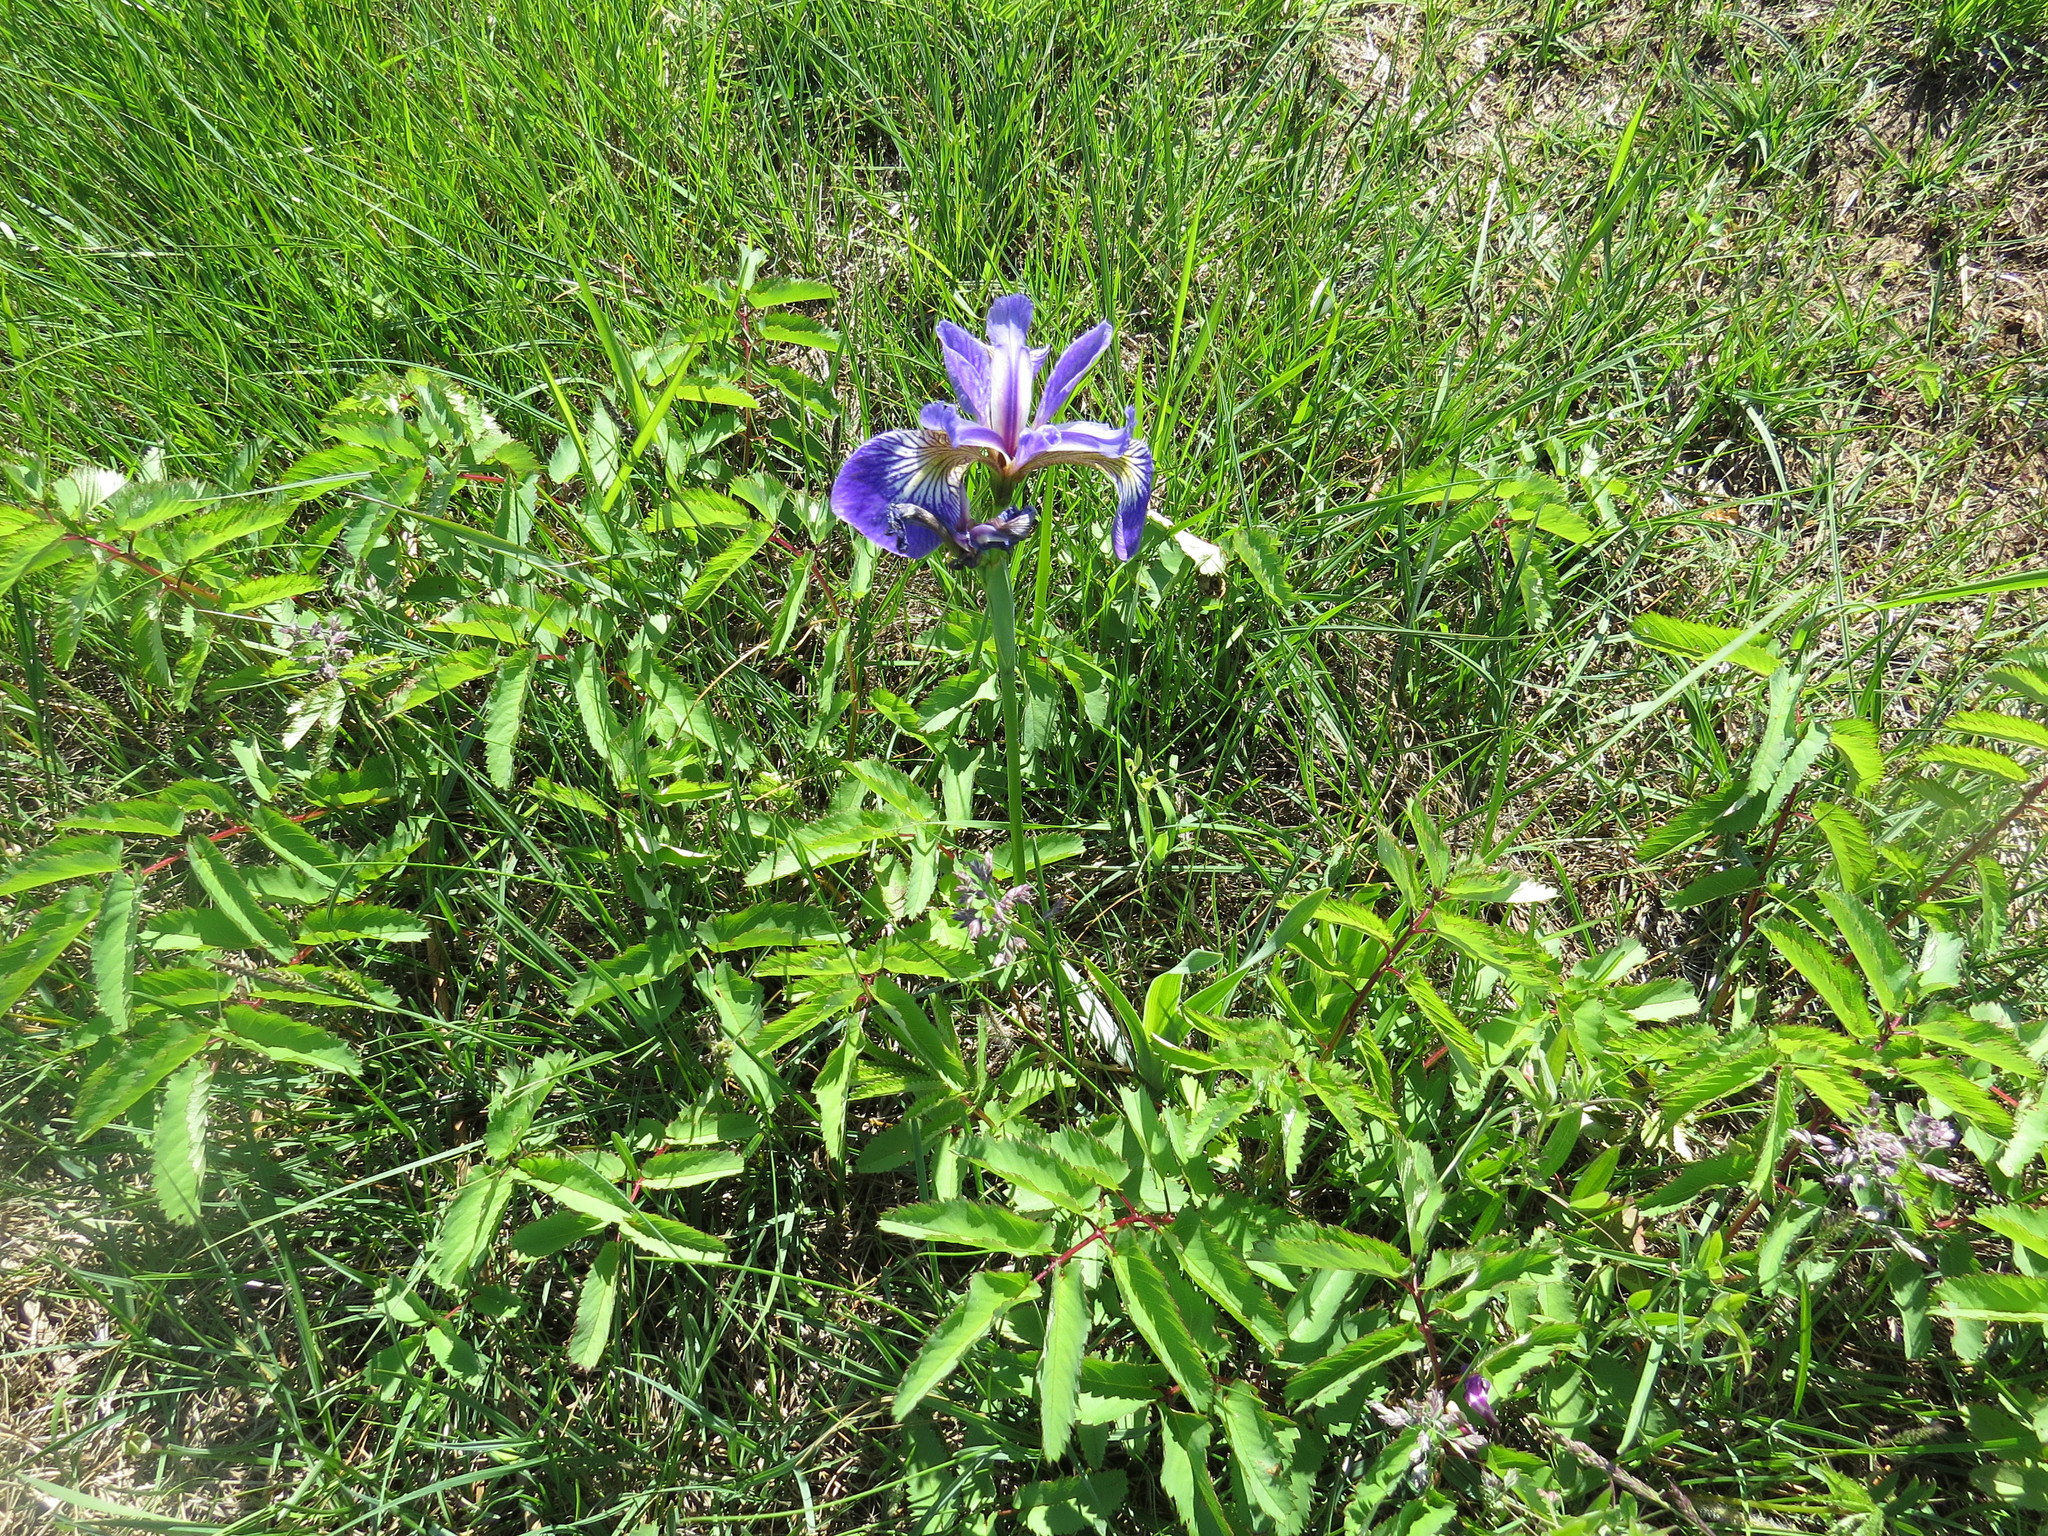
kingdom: Plantae
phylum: Tracheophyta
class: Liliopsida
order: Asparagales
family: Iridaceae
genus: Iris
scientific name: Iris versicolor
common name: Purple iris
